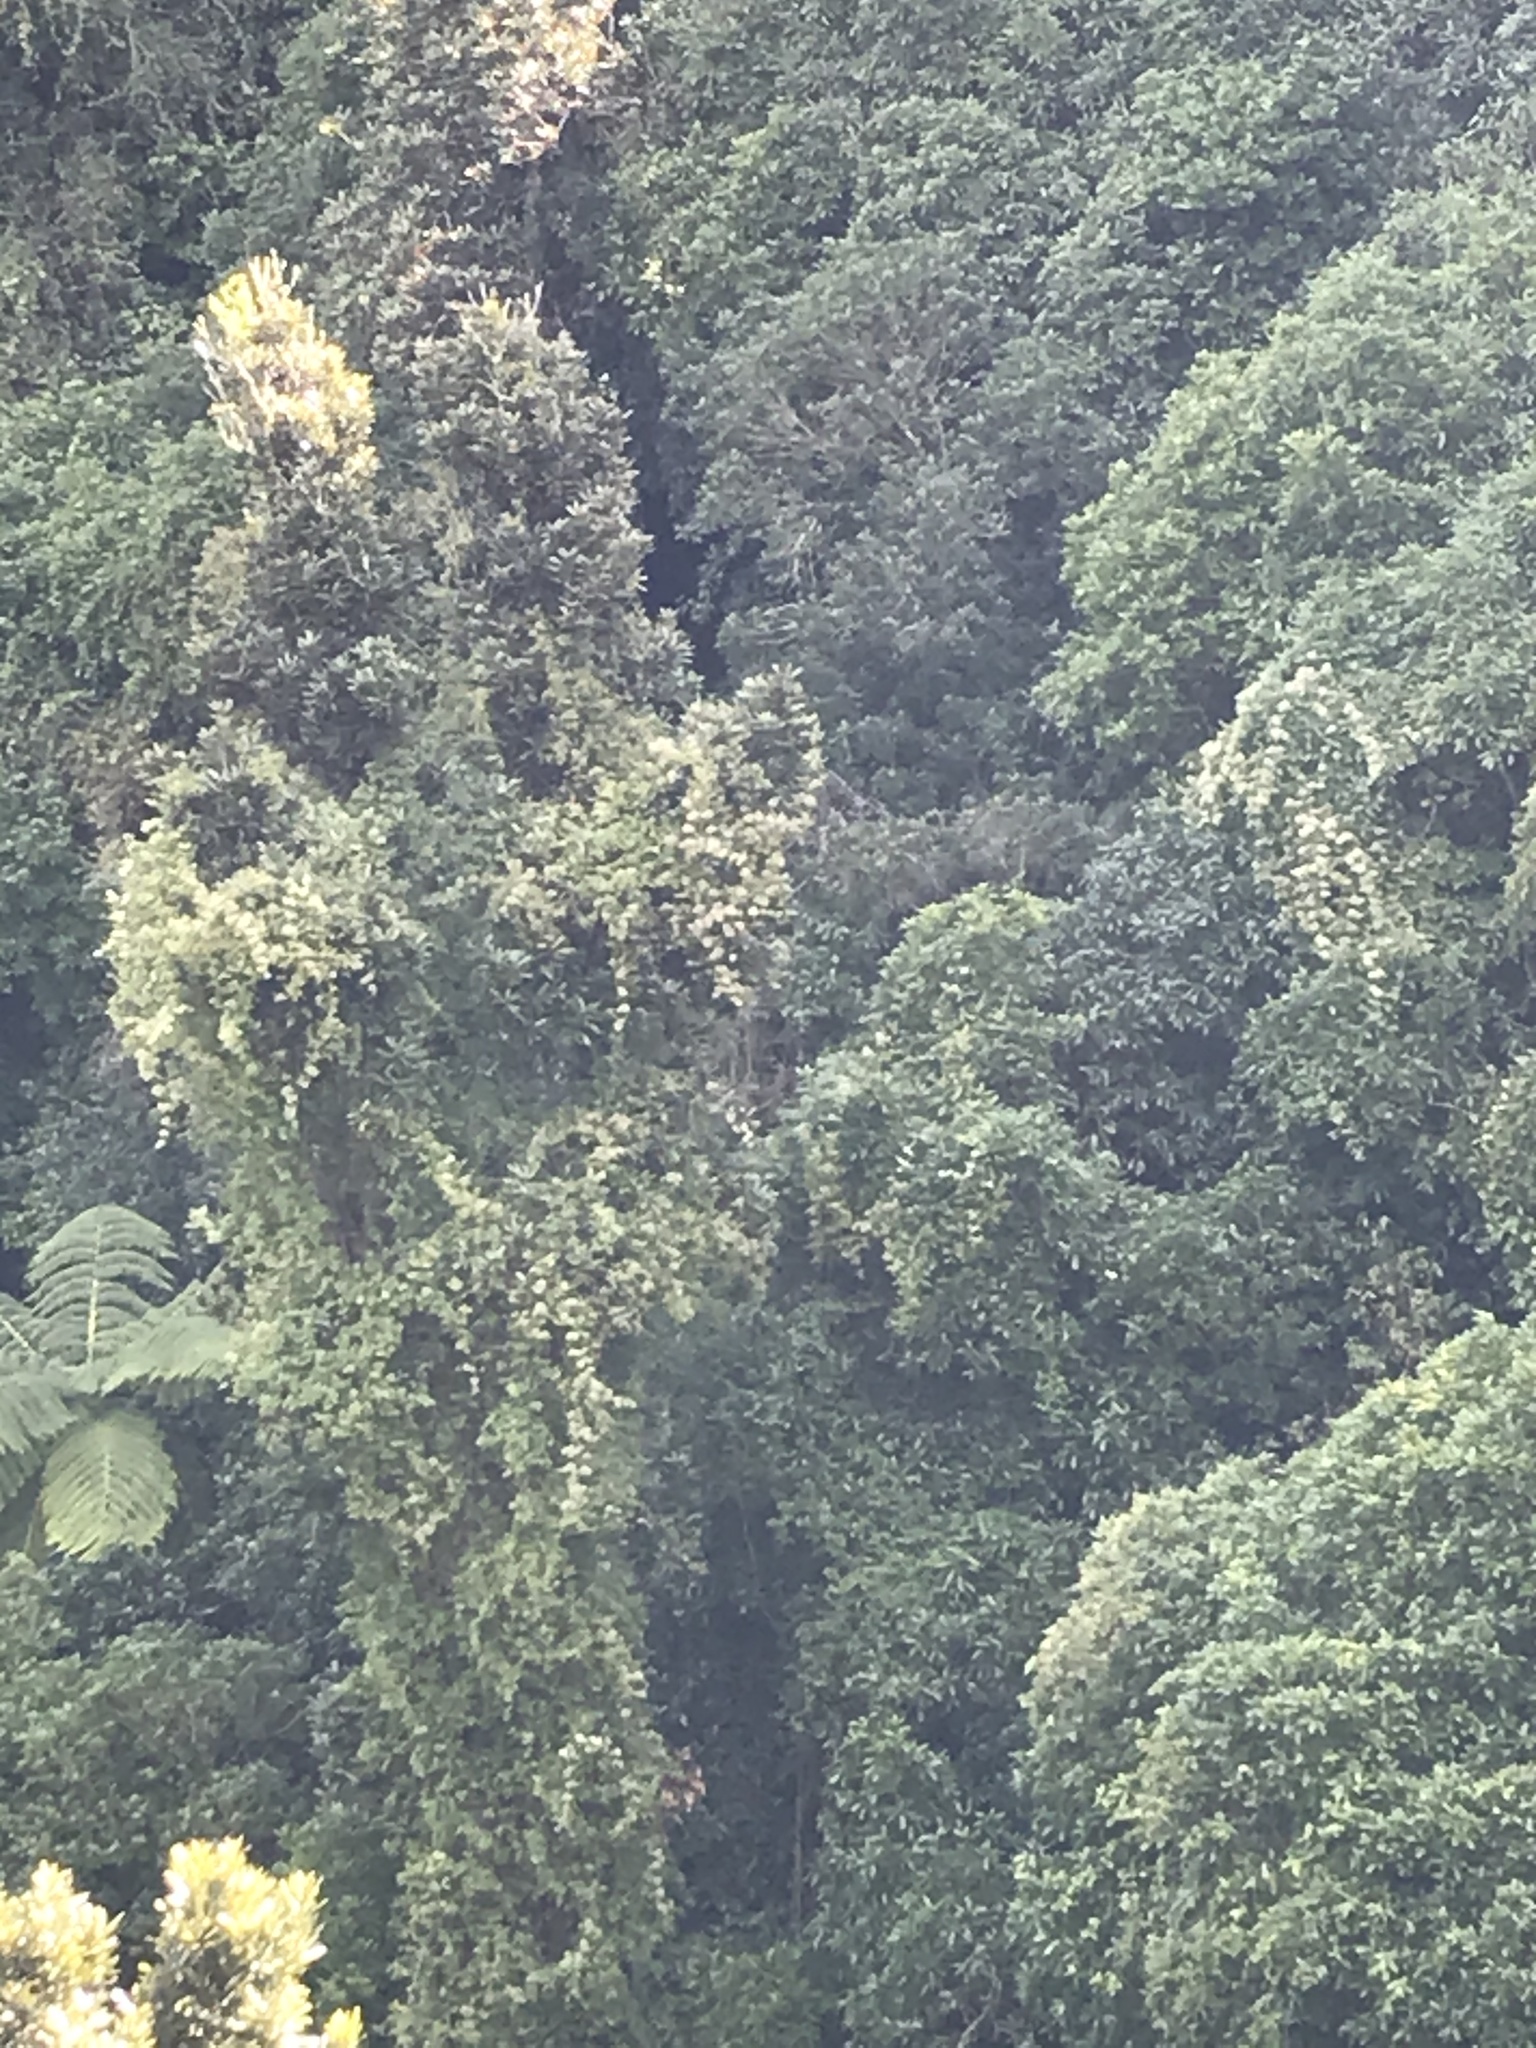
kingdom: Plantae
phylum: Tracheophyta
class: Magnoliopsida
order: Ranunculales
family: Ranunculaceae
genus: Clematis
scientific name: Clematis vitalba
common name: Evergreen clematis
